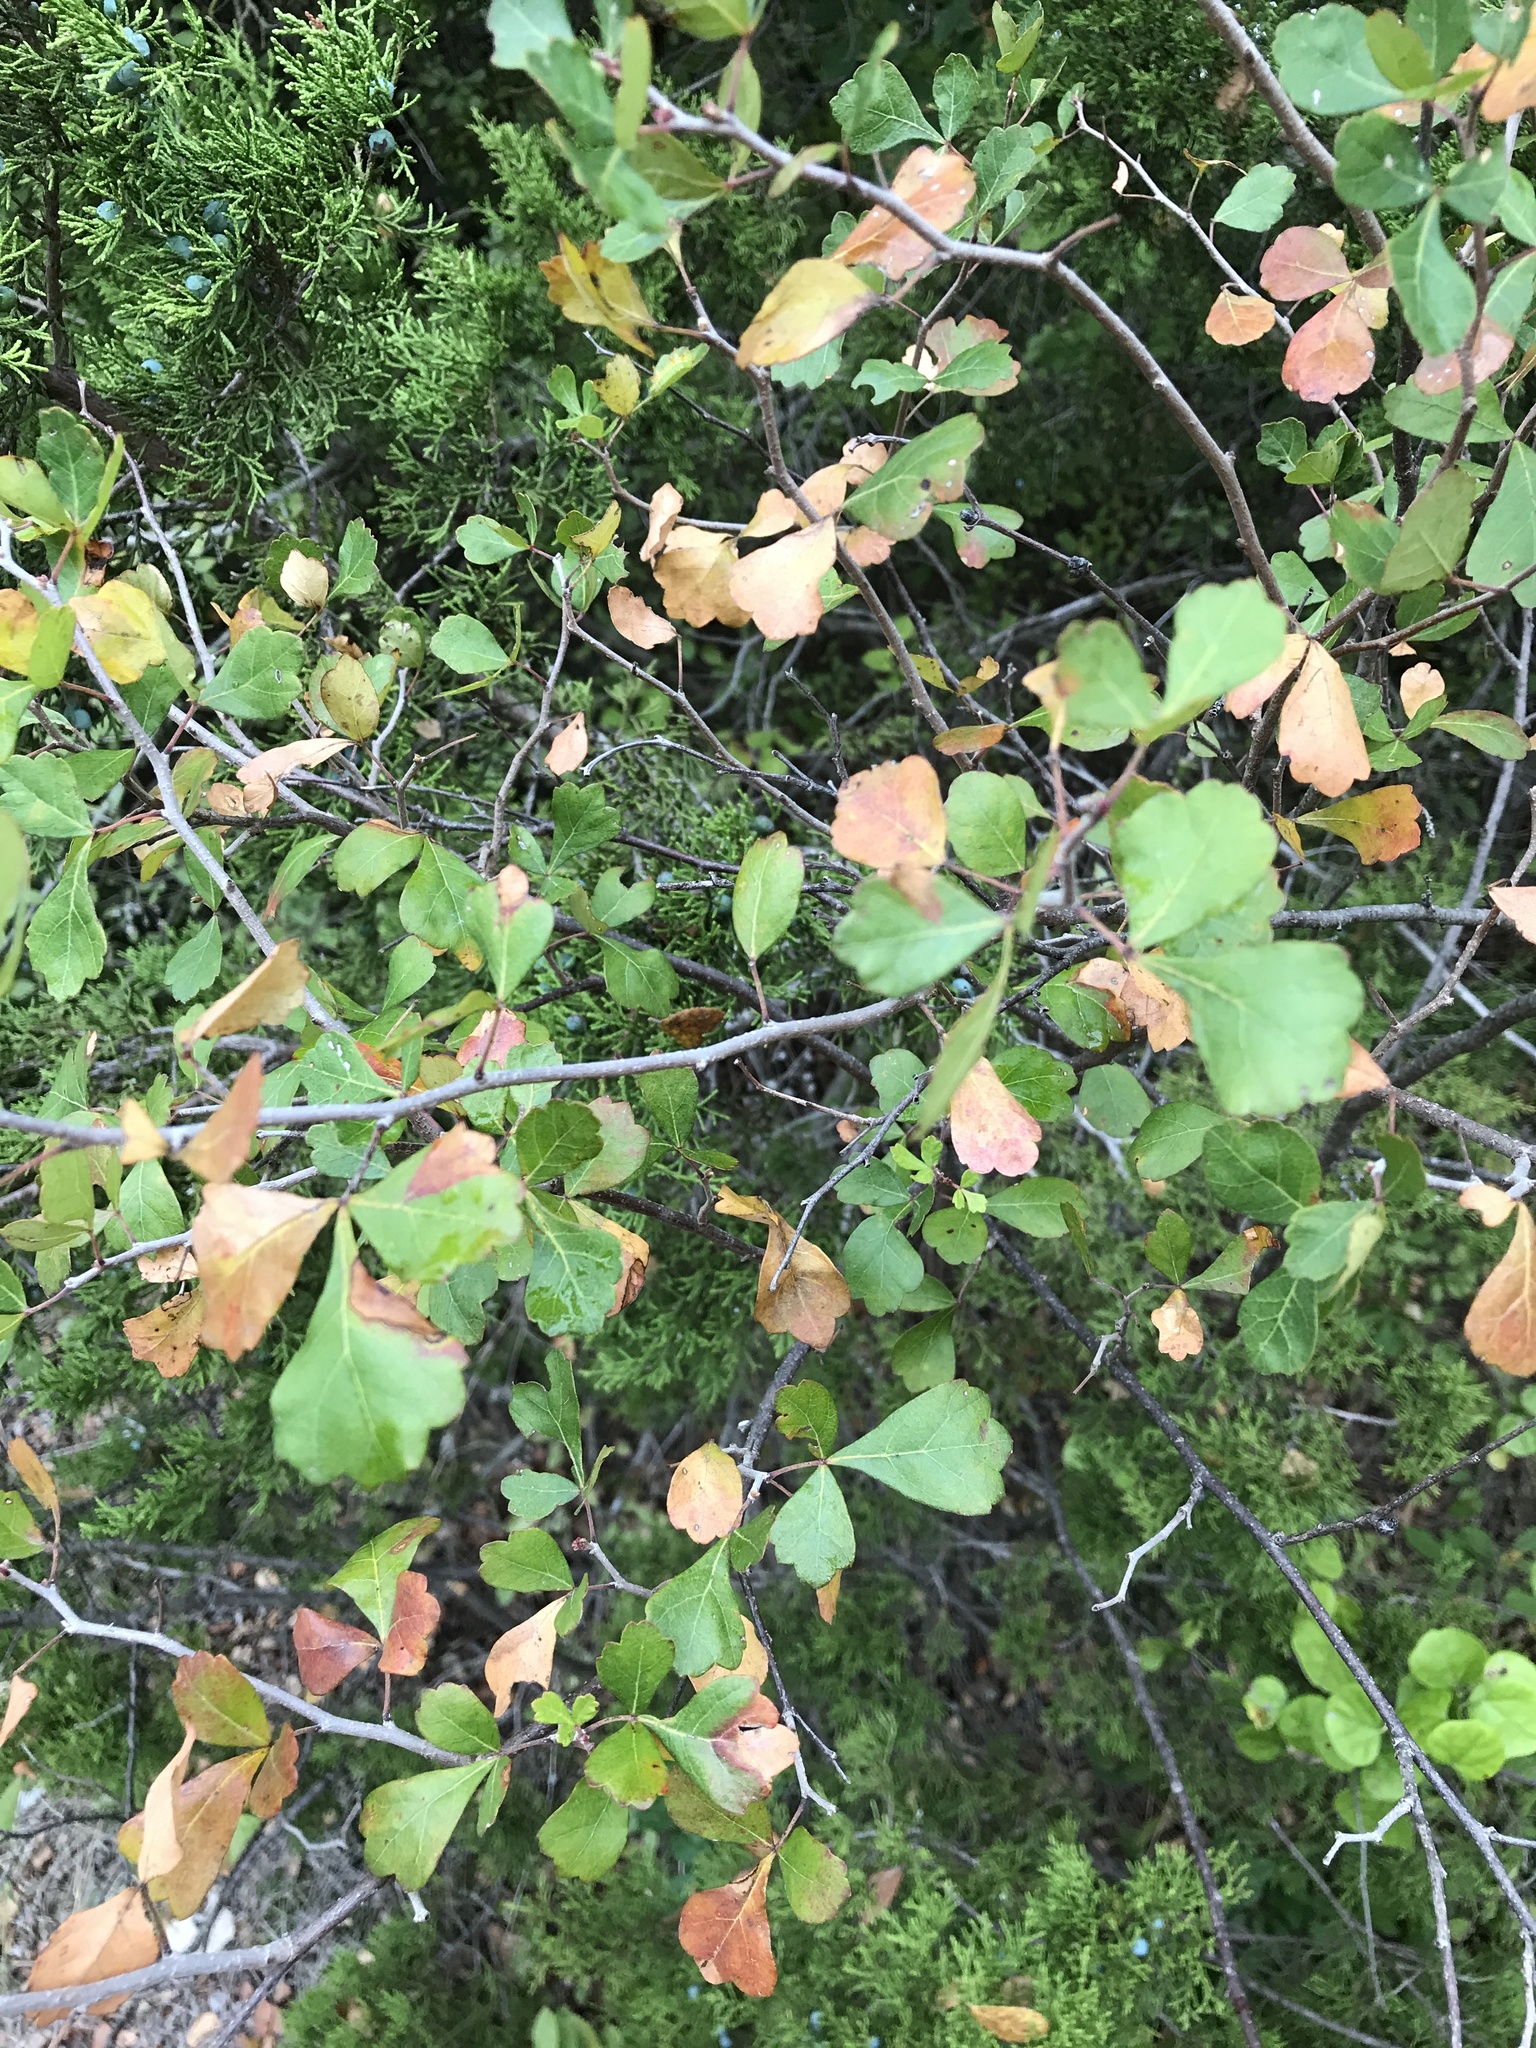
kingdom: Plantae
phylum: Tracheophyta
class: Magnoliopsida
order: Sapindales
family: Anacardiaceae
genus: Rhus
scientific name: Rhus aromatica
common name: Aromatic sumac
